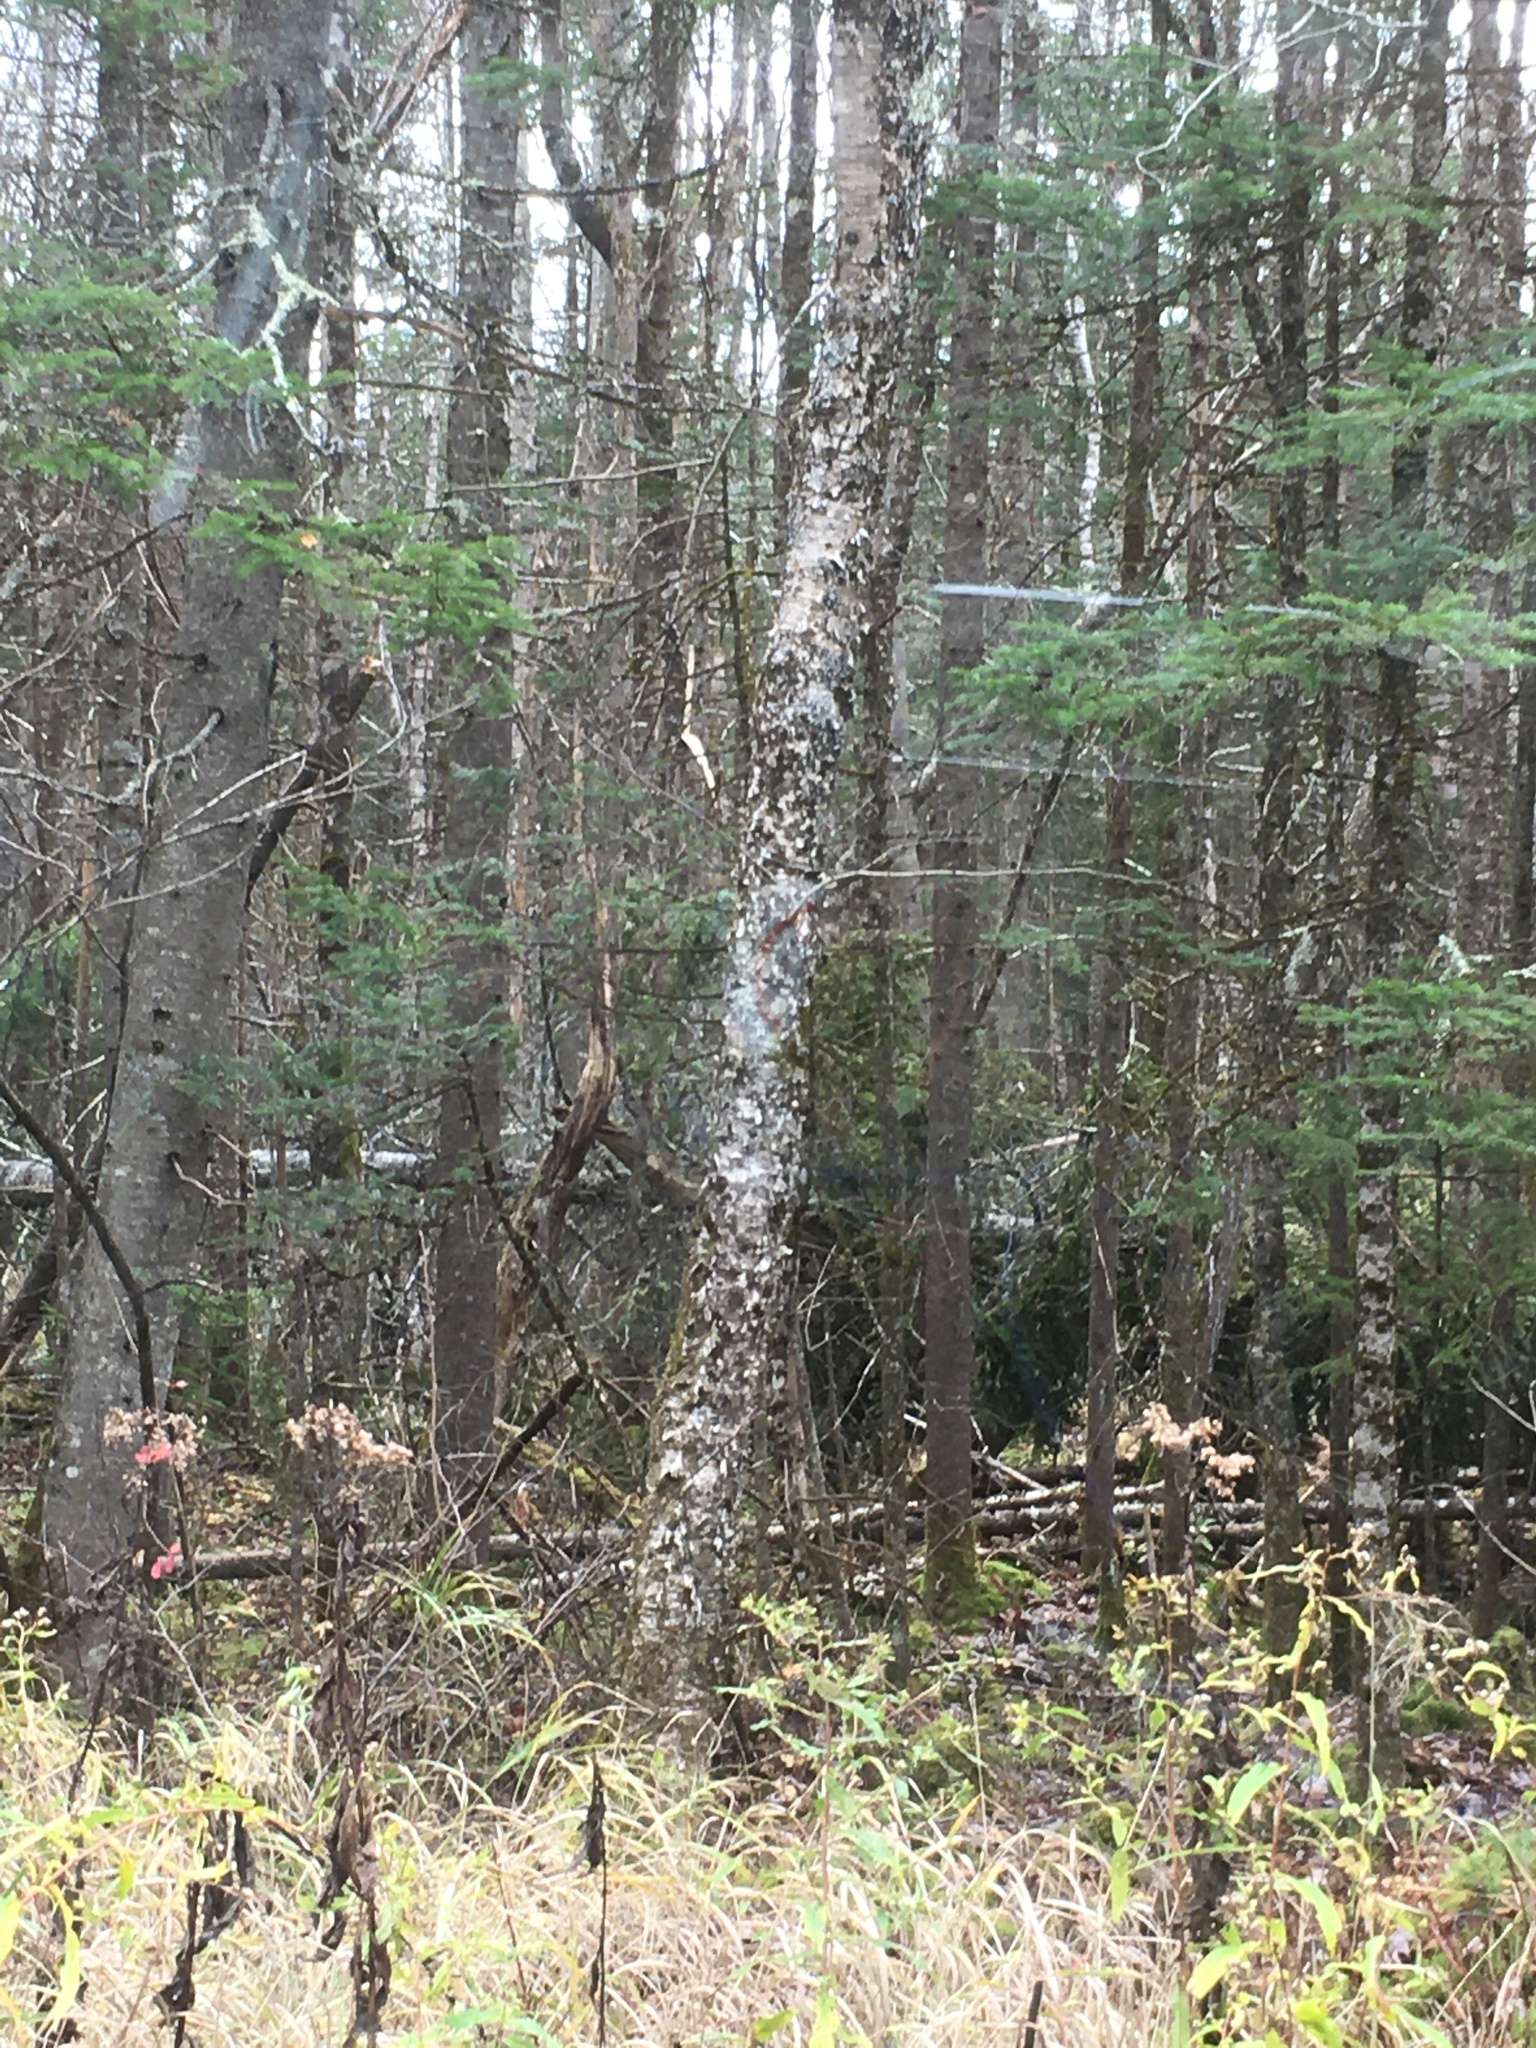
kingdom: Plantae
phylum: Tracheophyta
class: Magnoliopsida
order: Fagales
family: Betulaceae
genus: Betula
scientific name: Betula alleghaniensis
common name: Yellow birch
